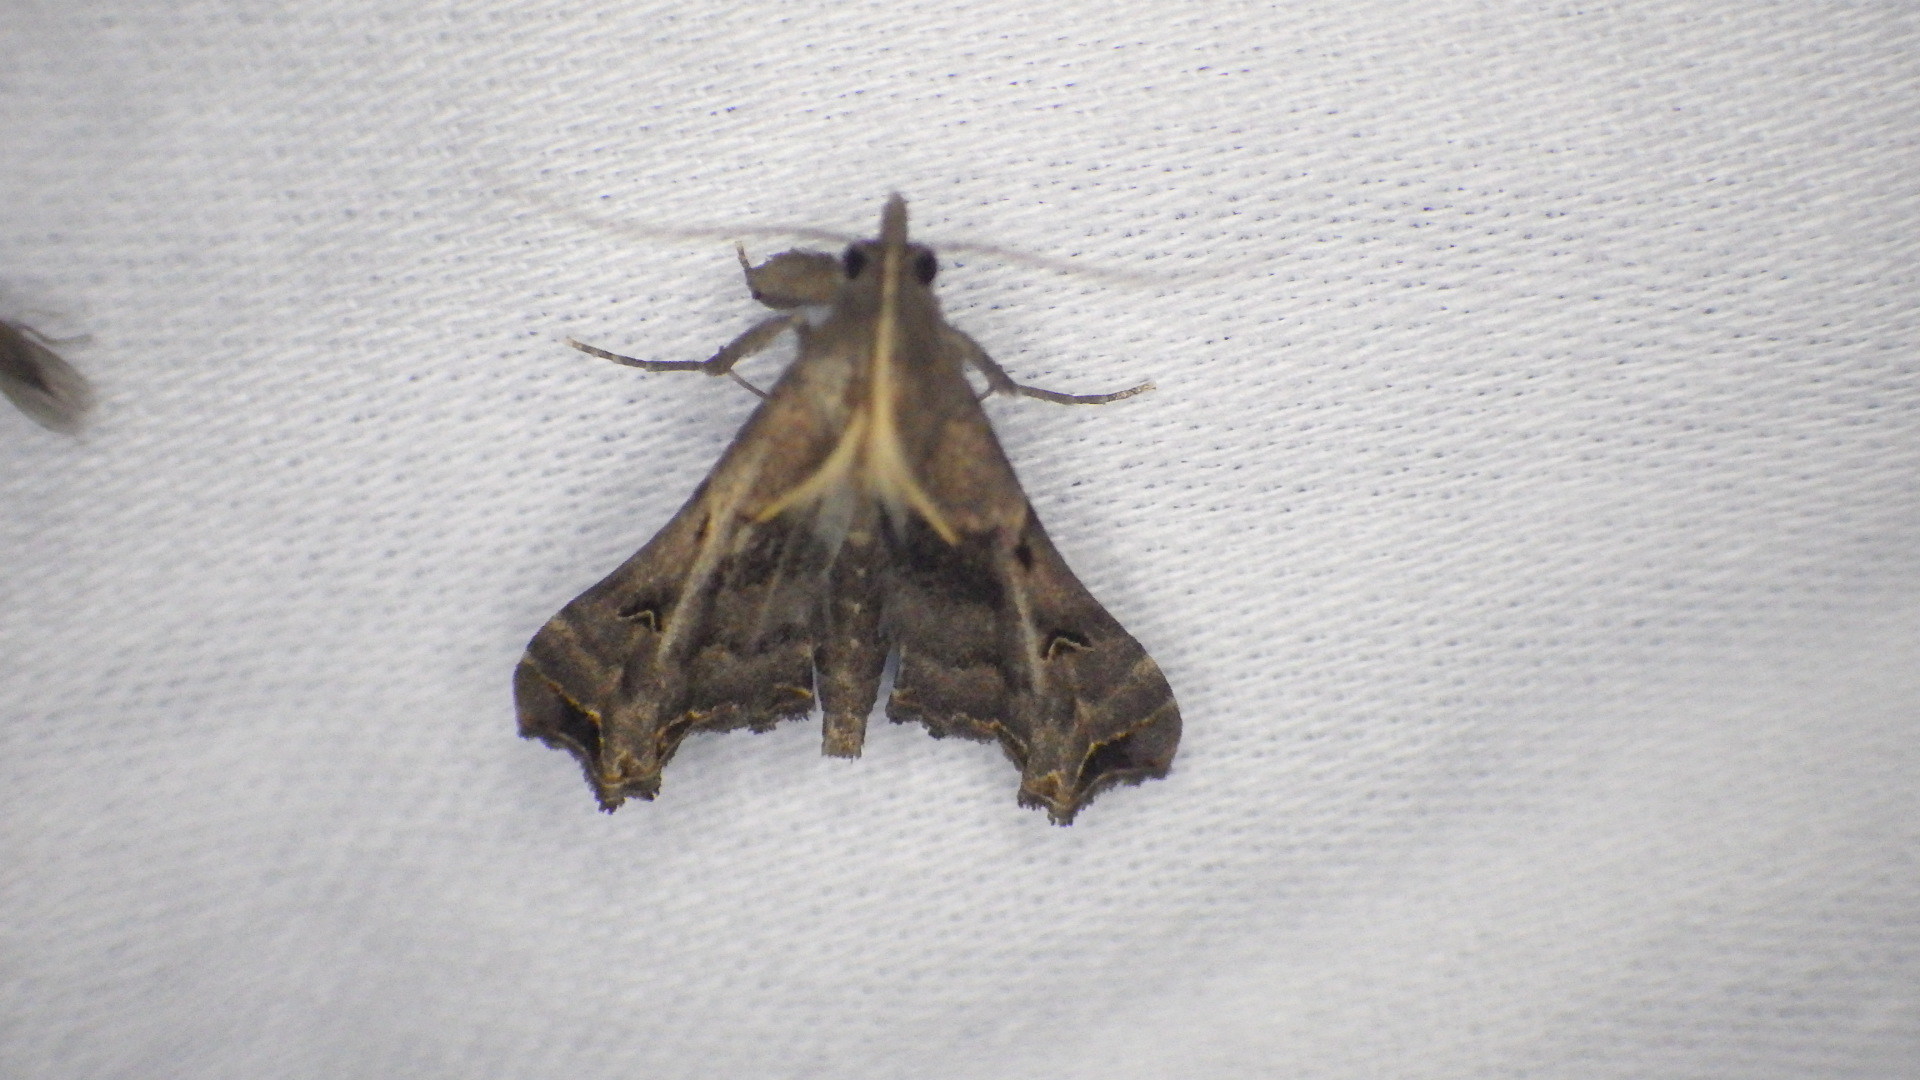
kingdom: Animalia
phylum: Arthropoda
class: Insecta
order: Lepidoptera
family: Erebidae
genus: Palthis
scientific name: Palthis asopialis
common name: Faint-spotted palthis moth
